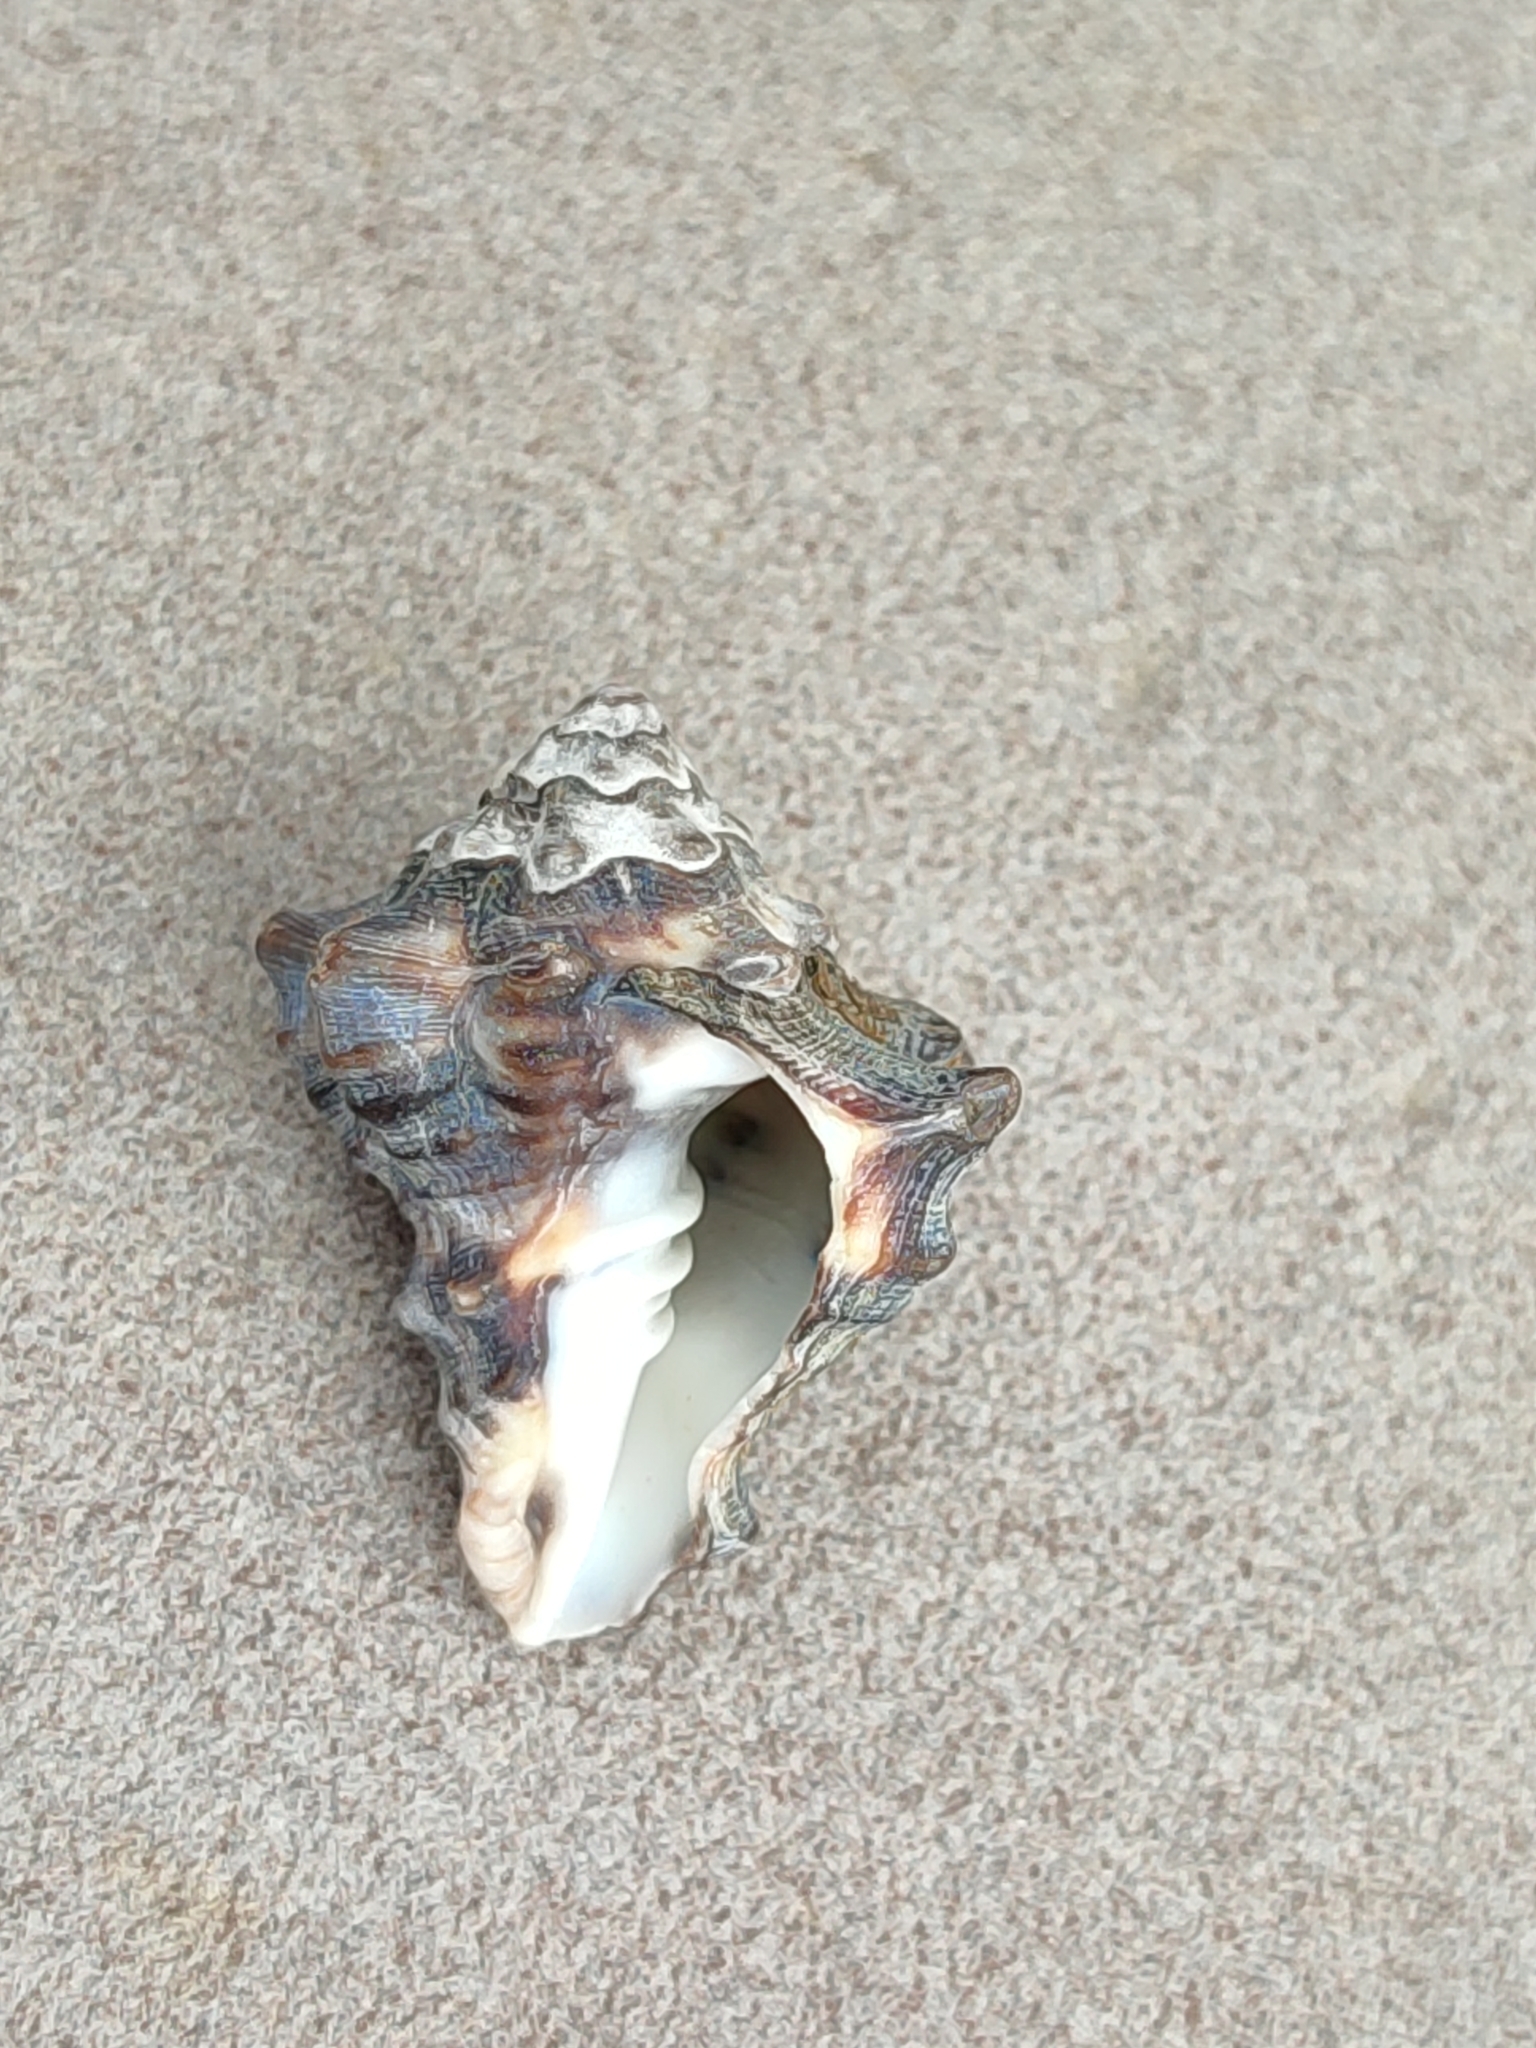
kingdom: Animalia
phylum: Mollusca
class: Gastropoda
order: Neogastropoda
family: Turbinellidae
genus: Vasum
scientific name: Vasum turbinellus
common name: Pacific top vase
